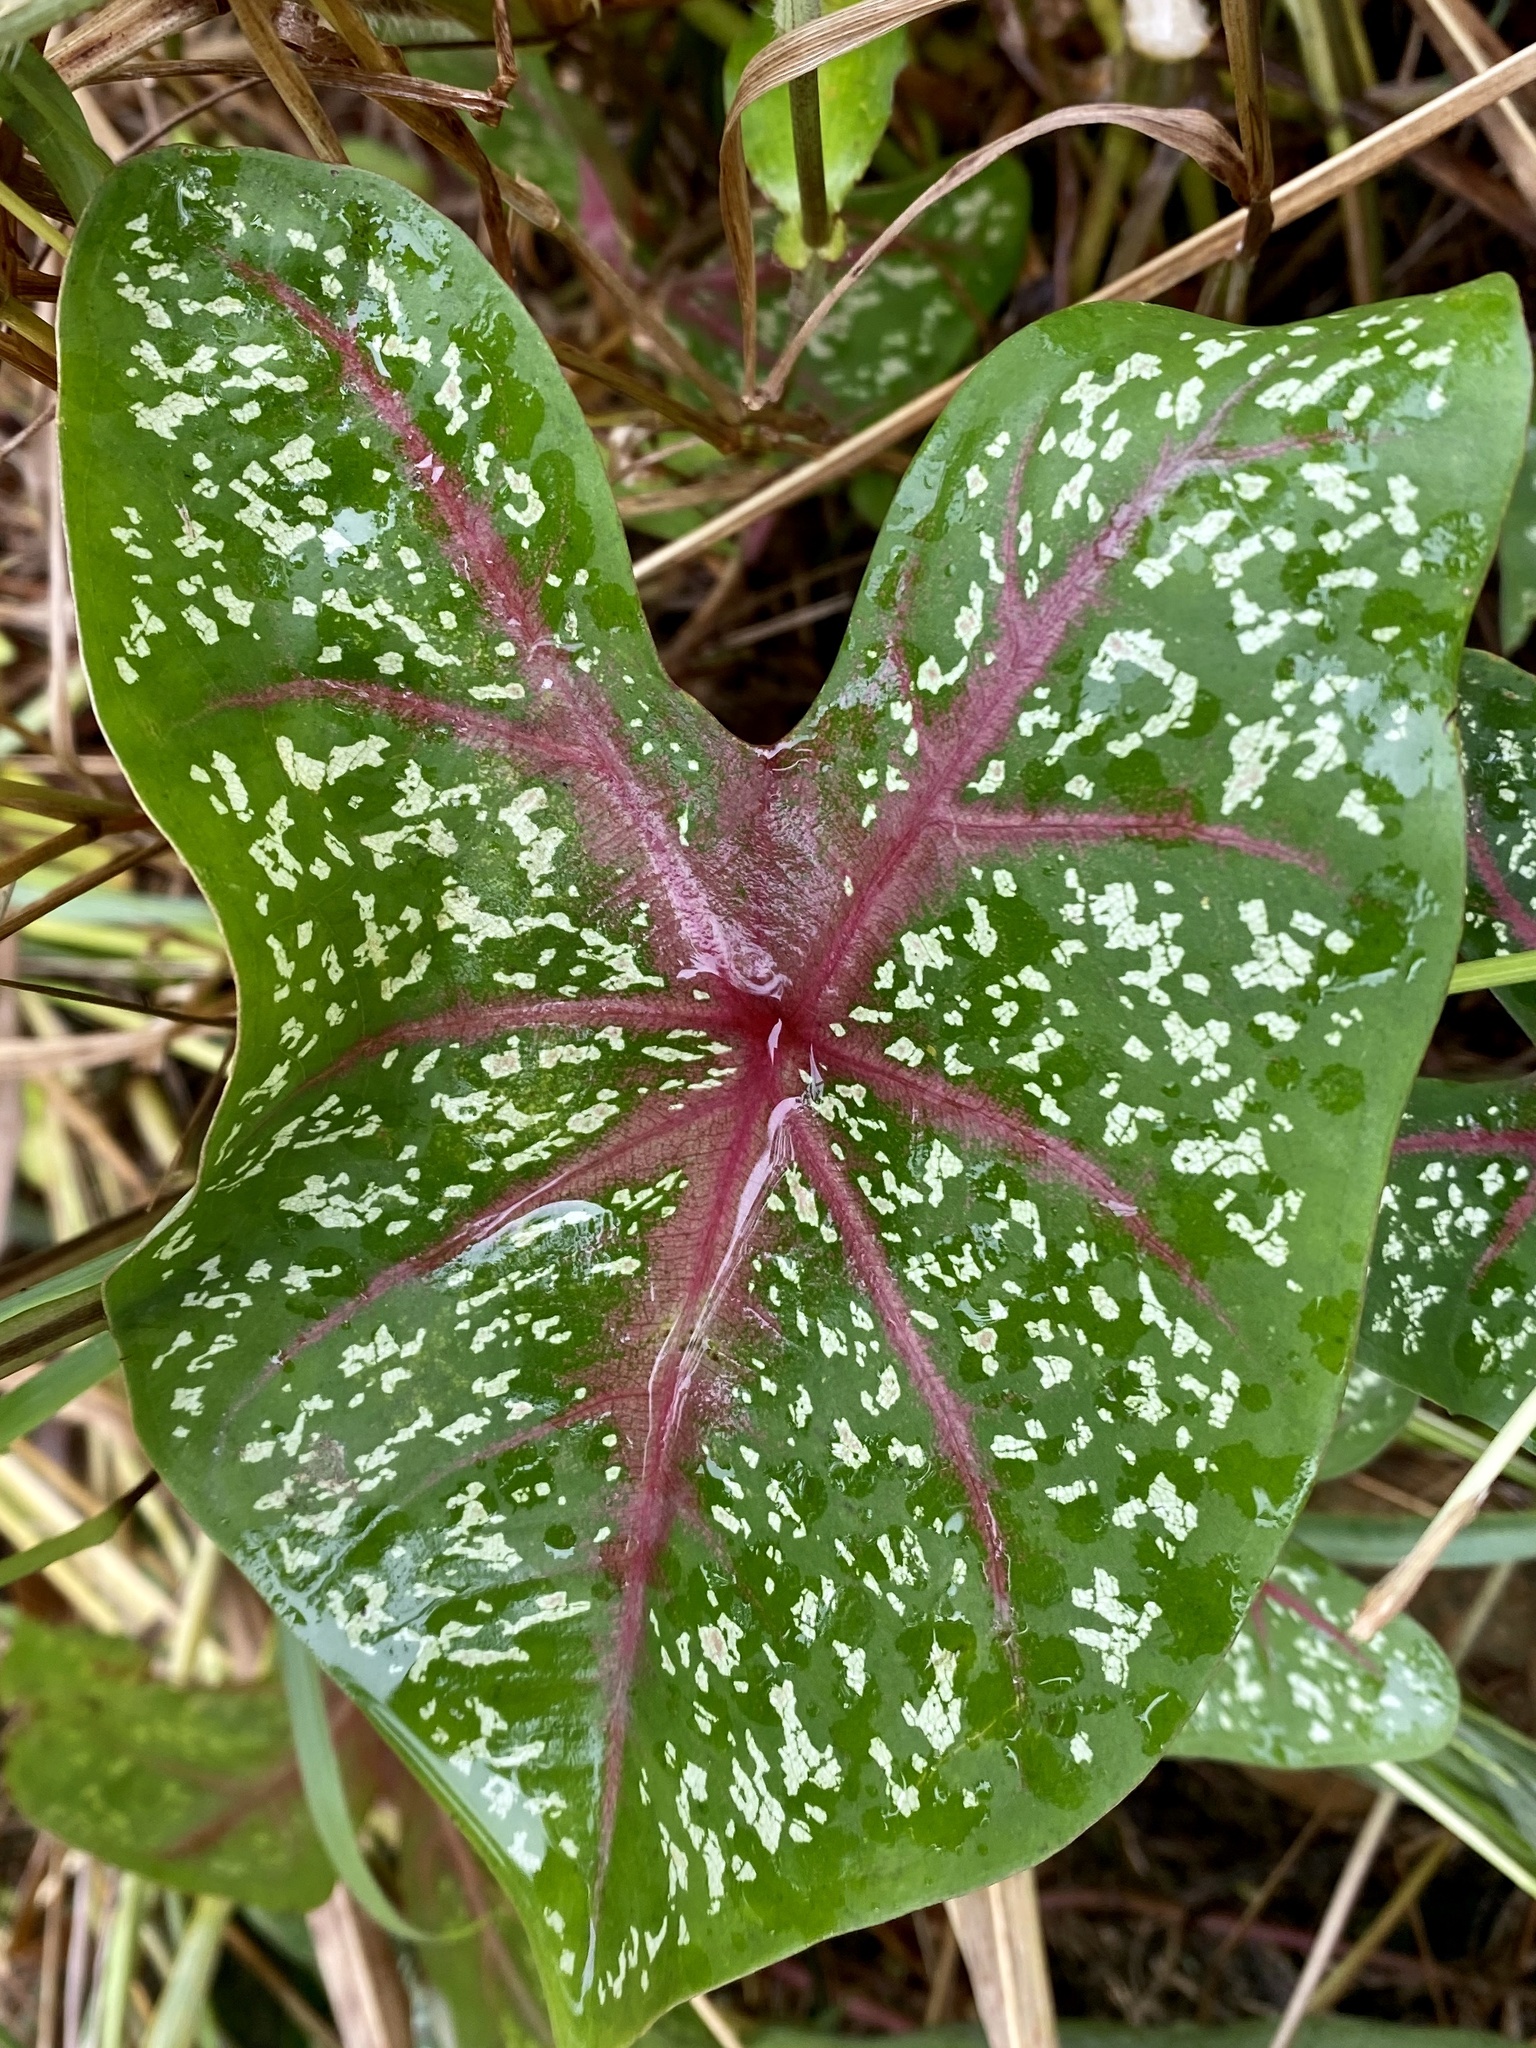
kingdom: Plantae
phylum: Tracheophyta
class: Liliopsida
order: Alismatales
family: Araceae
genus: Caladium
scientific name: Caladium bicolor
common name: Artist's pallet
